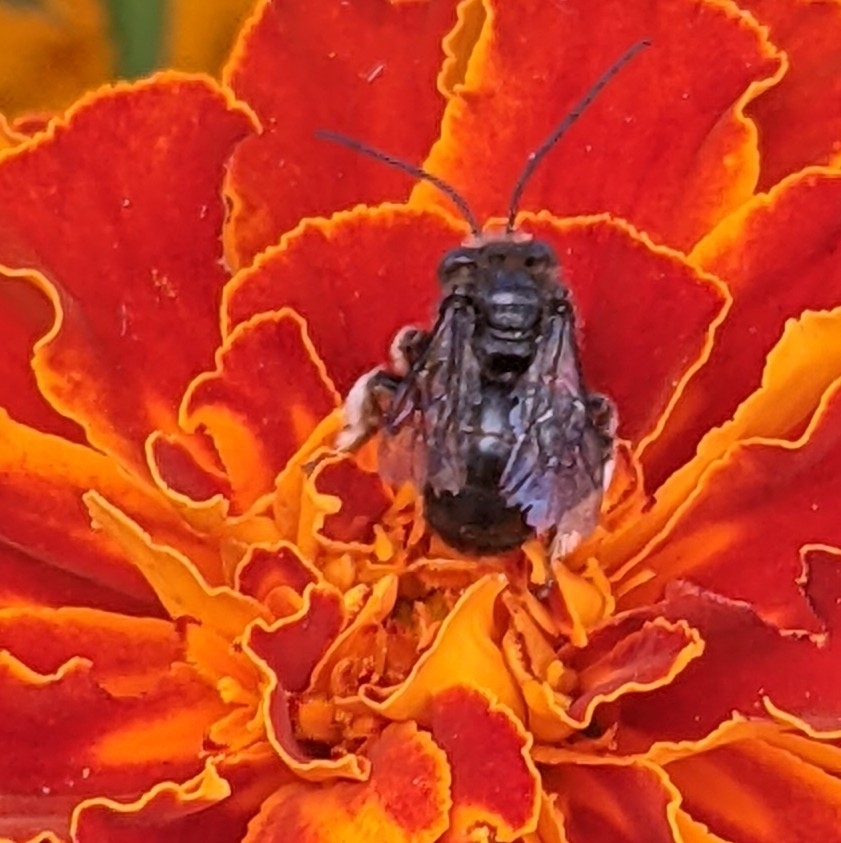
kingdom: Animalia
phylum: Arthropoda
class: Insecta
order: Hymenoptera
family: Apidae
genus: Melissodes
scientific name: Melissodes bimaculatus
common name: Two-spotted long-horned bee
